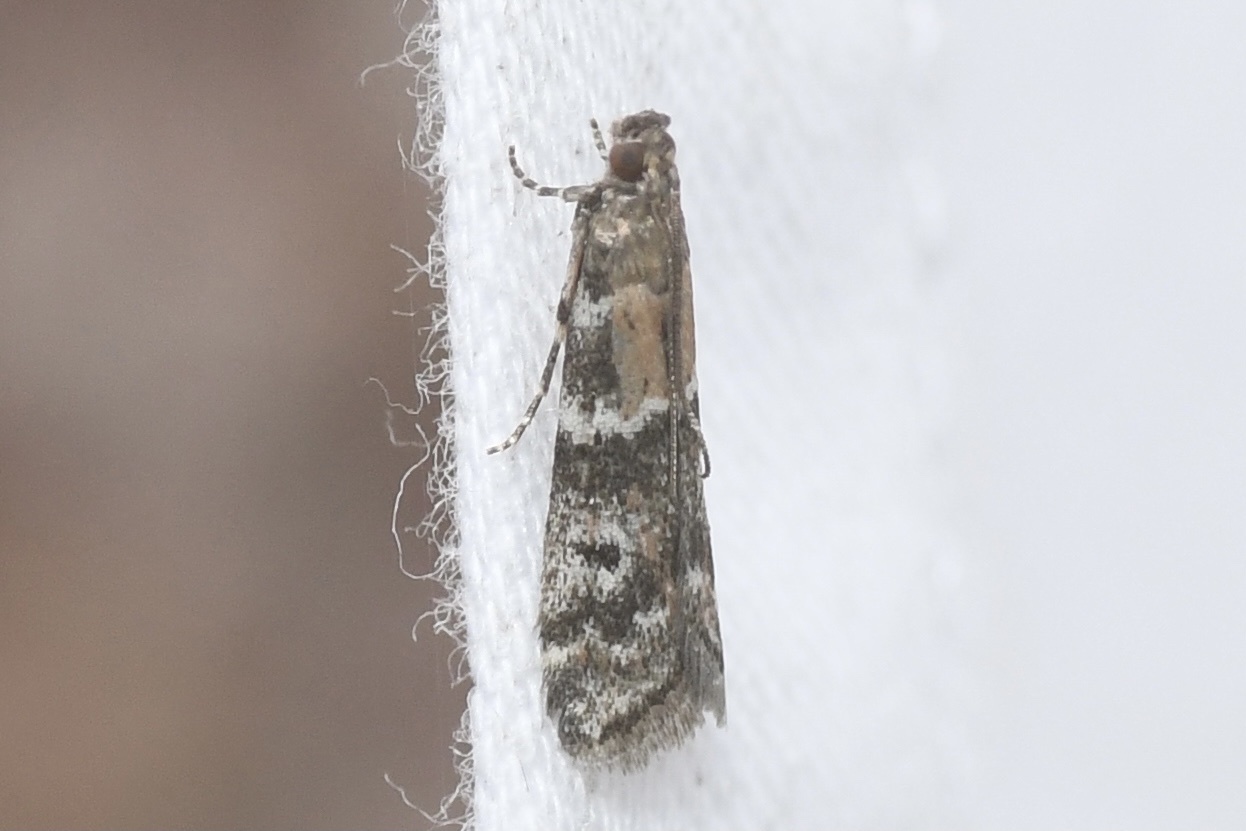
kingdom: Animalia
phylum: Arthropoda
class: Insecta
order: Lepidoptera
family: Pyralidae
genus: Vitula
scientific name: Vitula broweri
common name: Brower's vitula moth
